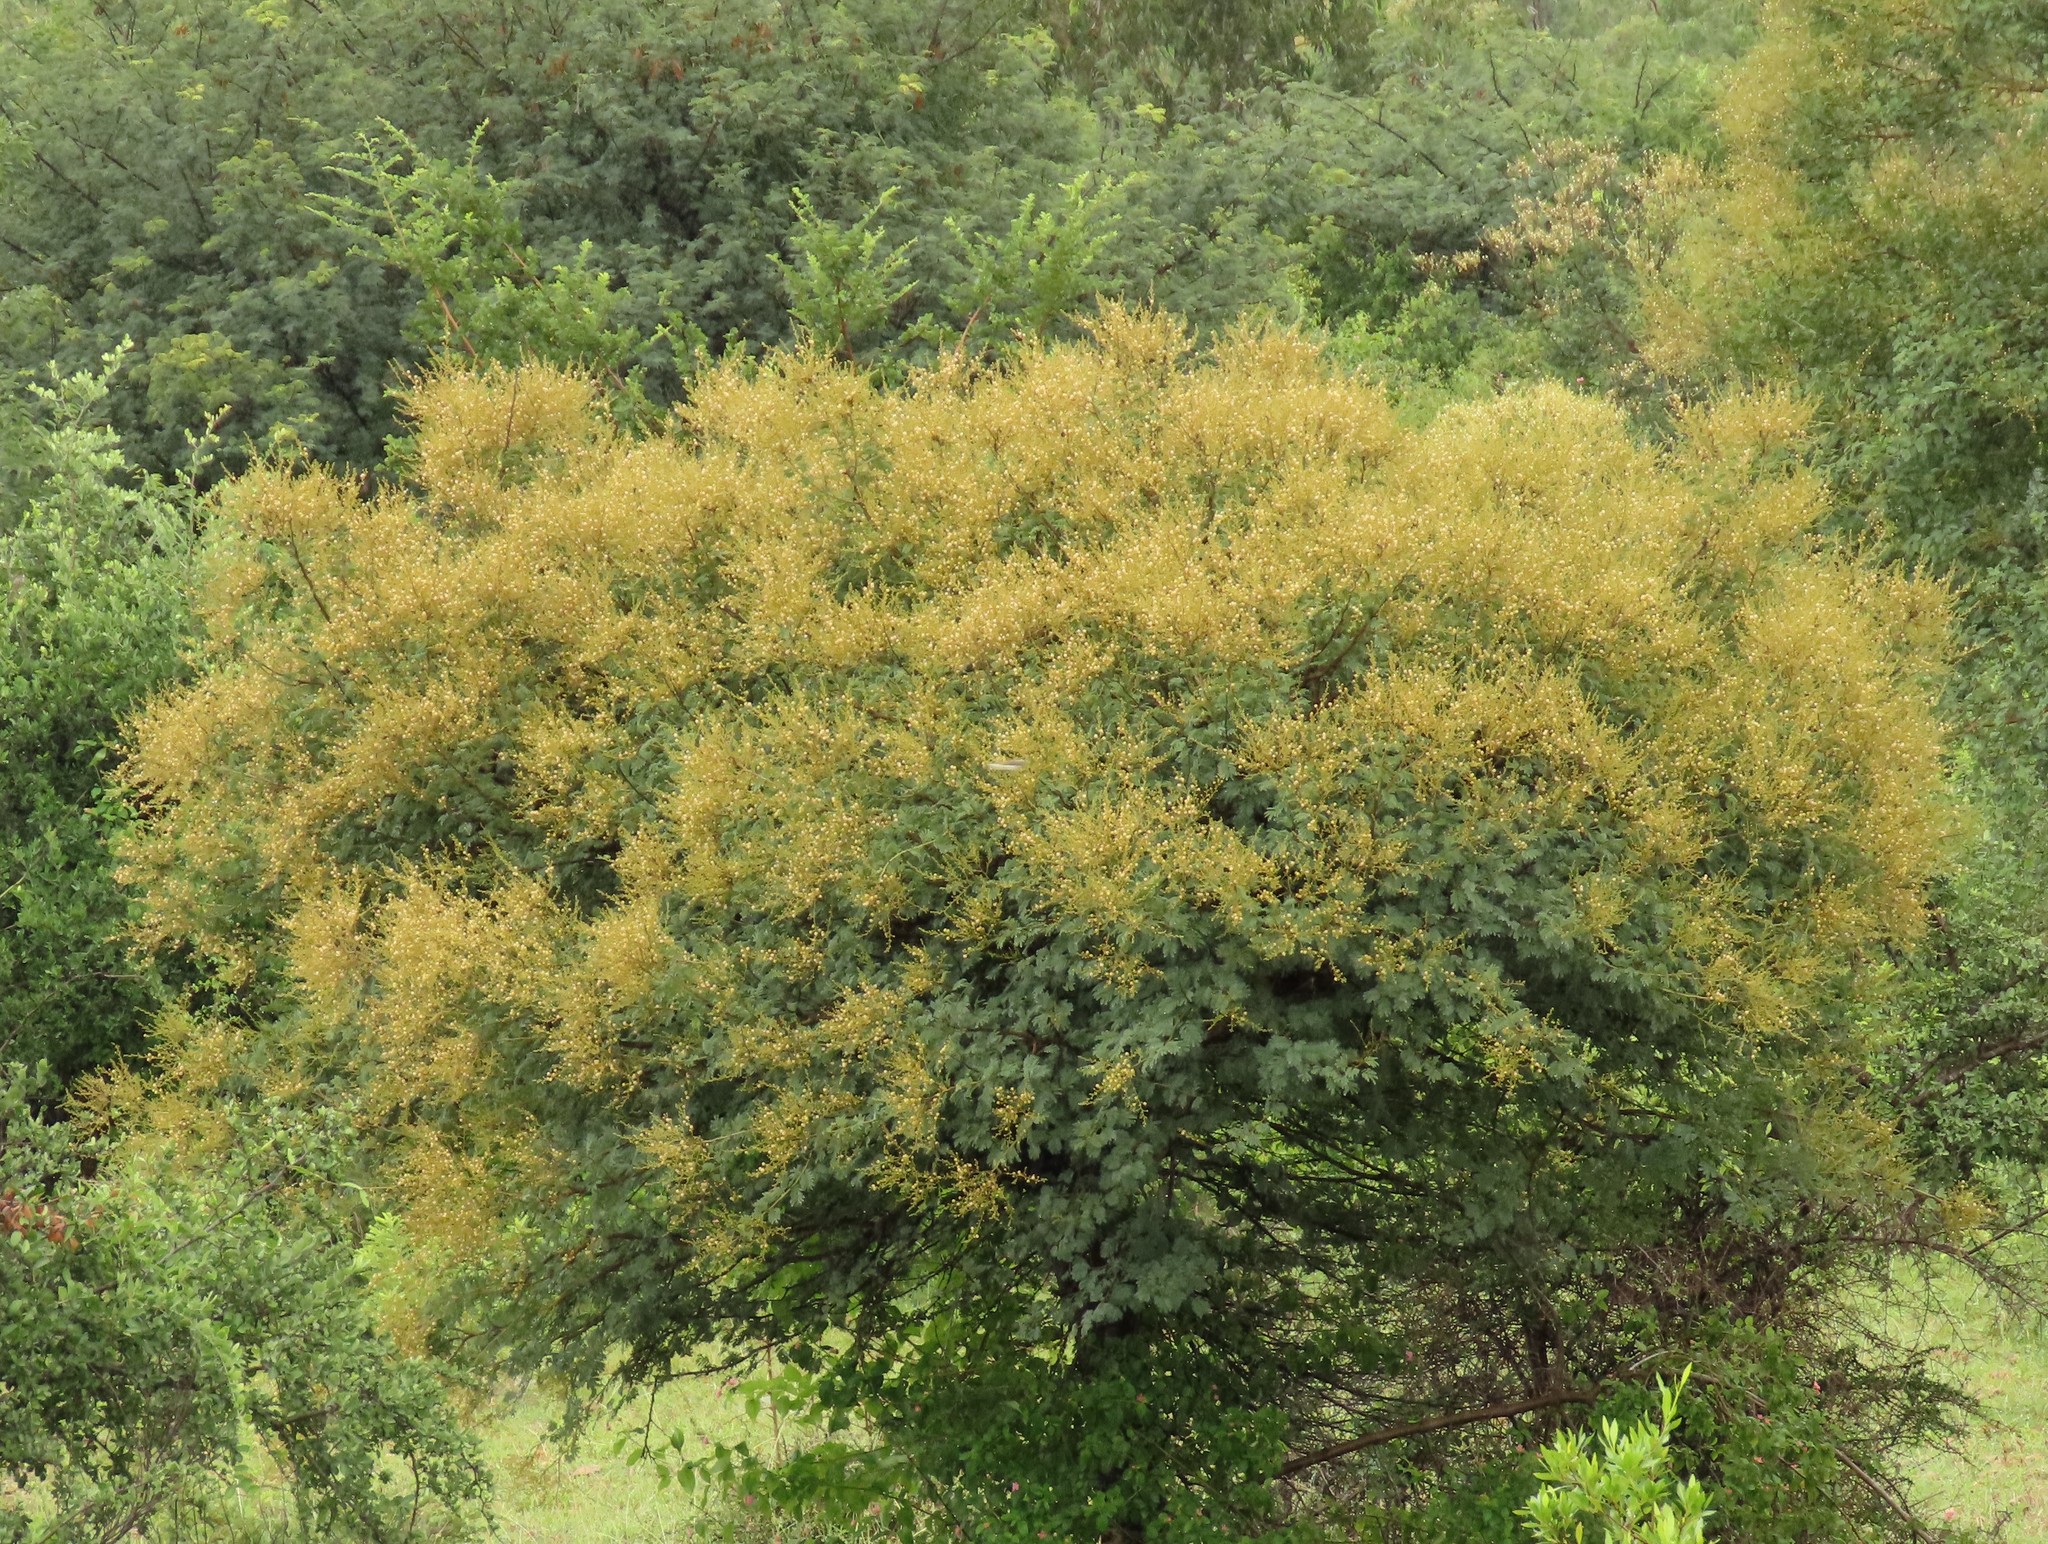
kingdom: Plantae
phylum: Tracheophyta
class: Magnoliopsida
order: Fabales
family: Fabaceae
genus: Vachellia
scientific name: Vachellia leucophloea
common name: Distiller's acacia
